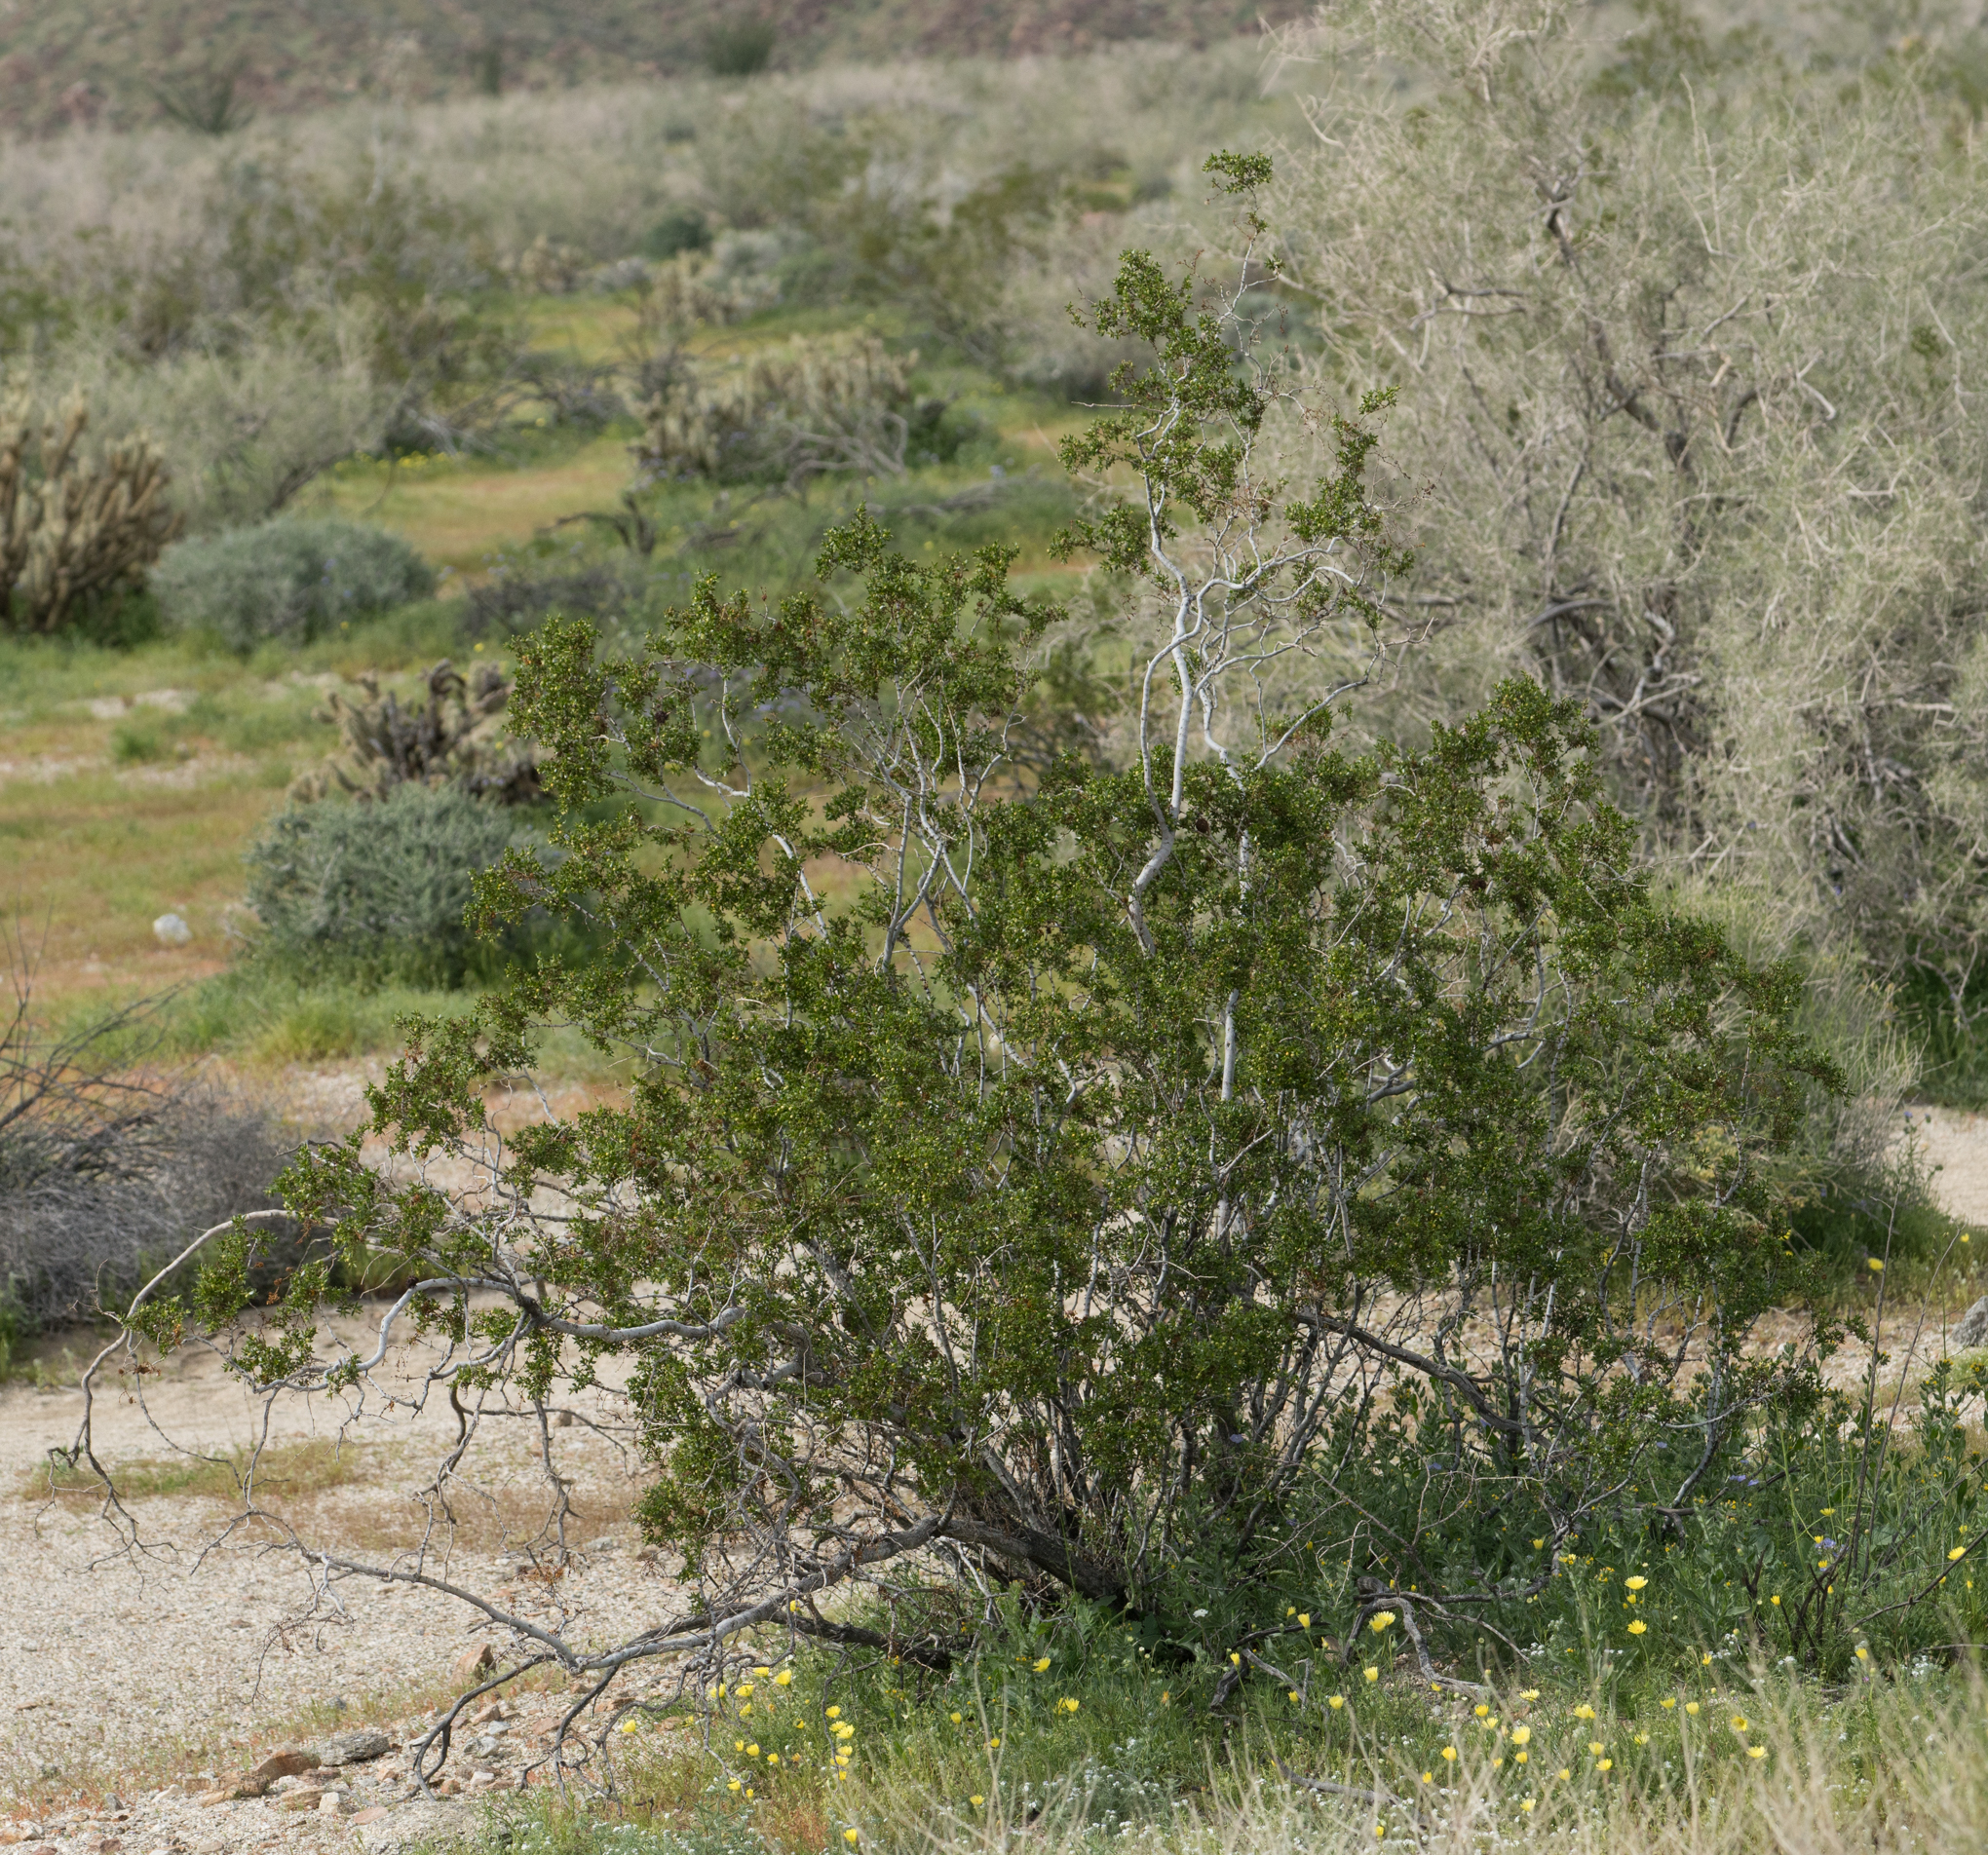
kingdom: Plantae
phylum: Tracheophyta
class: Magnoliopsida
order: Zygophyllales
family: Zygophyllaceae
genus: Larrea
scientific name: Larrea tridentata
